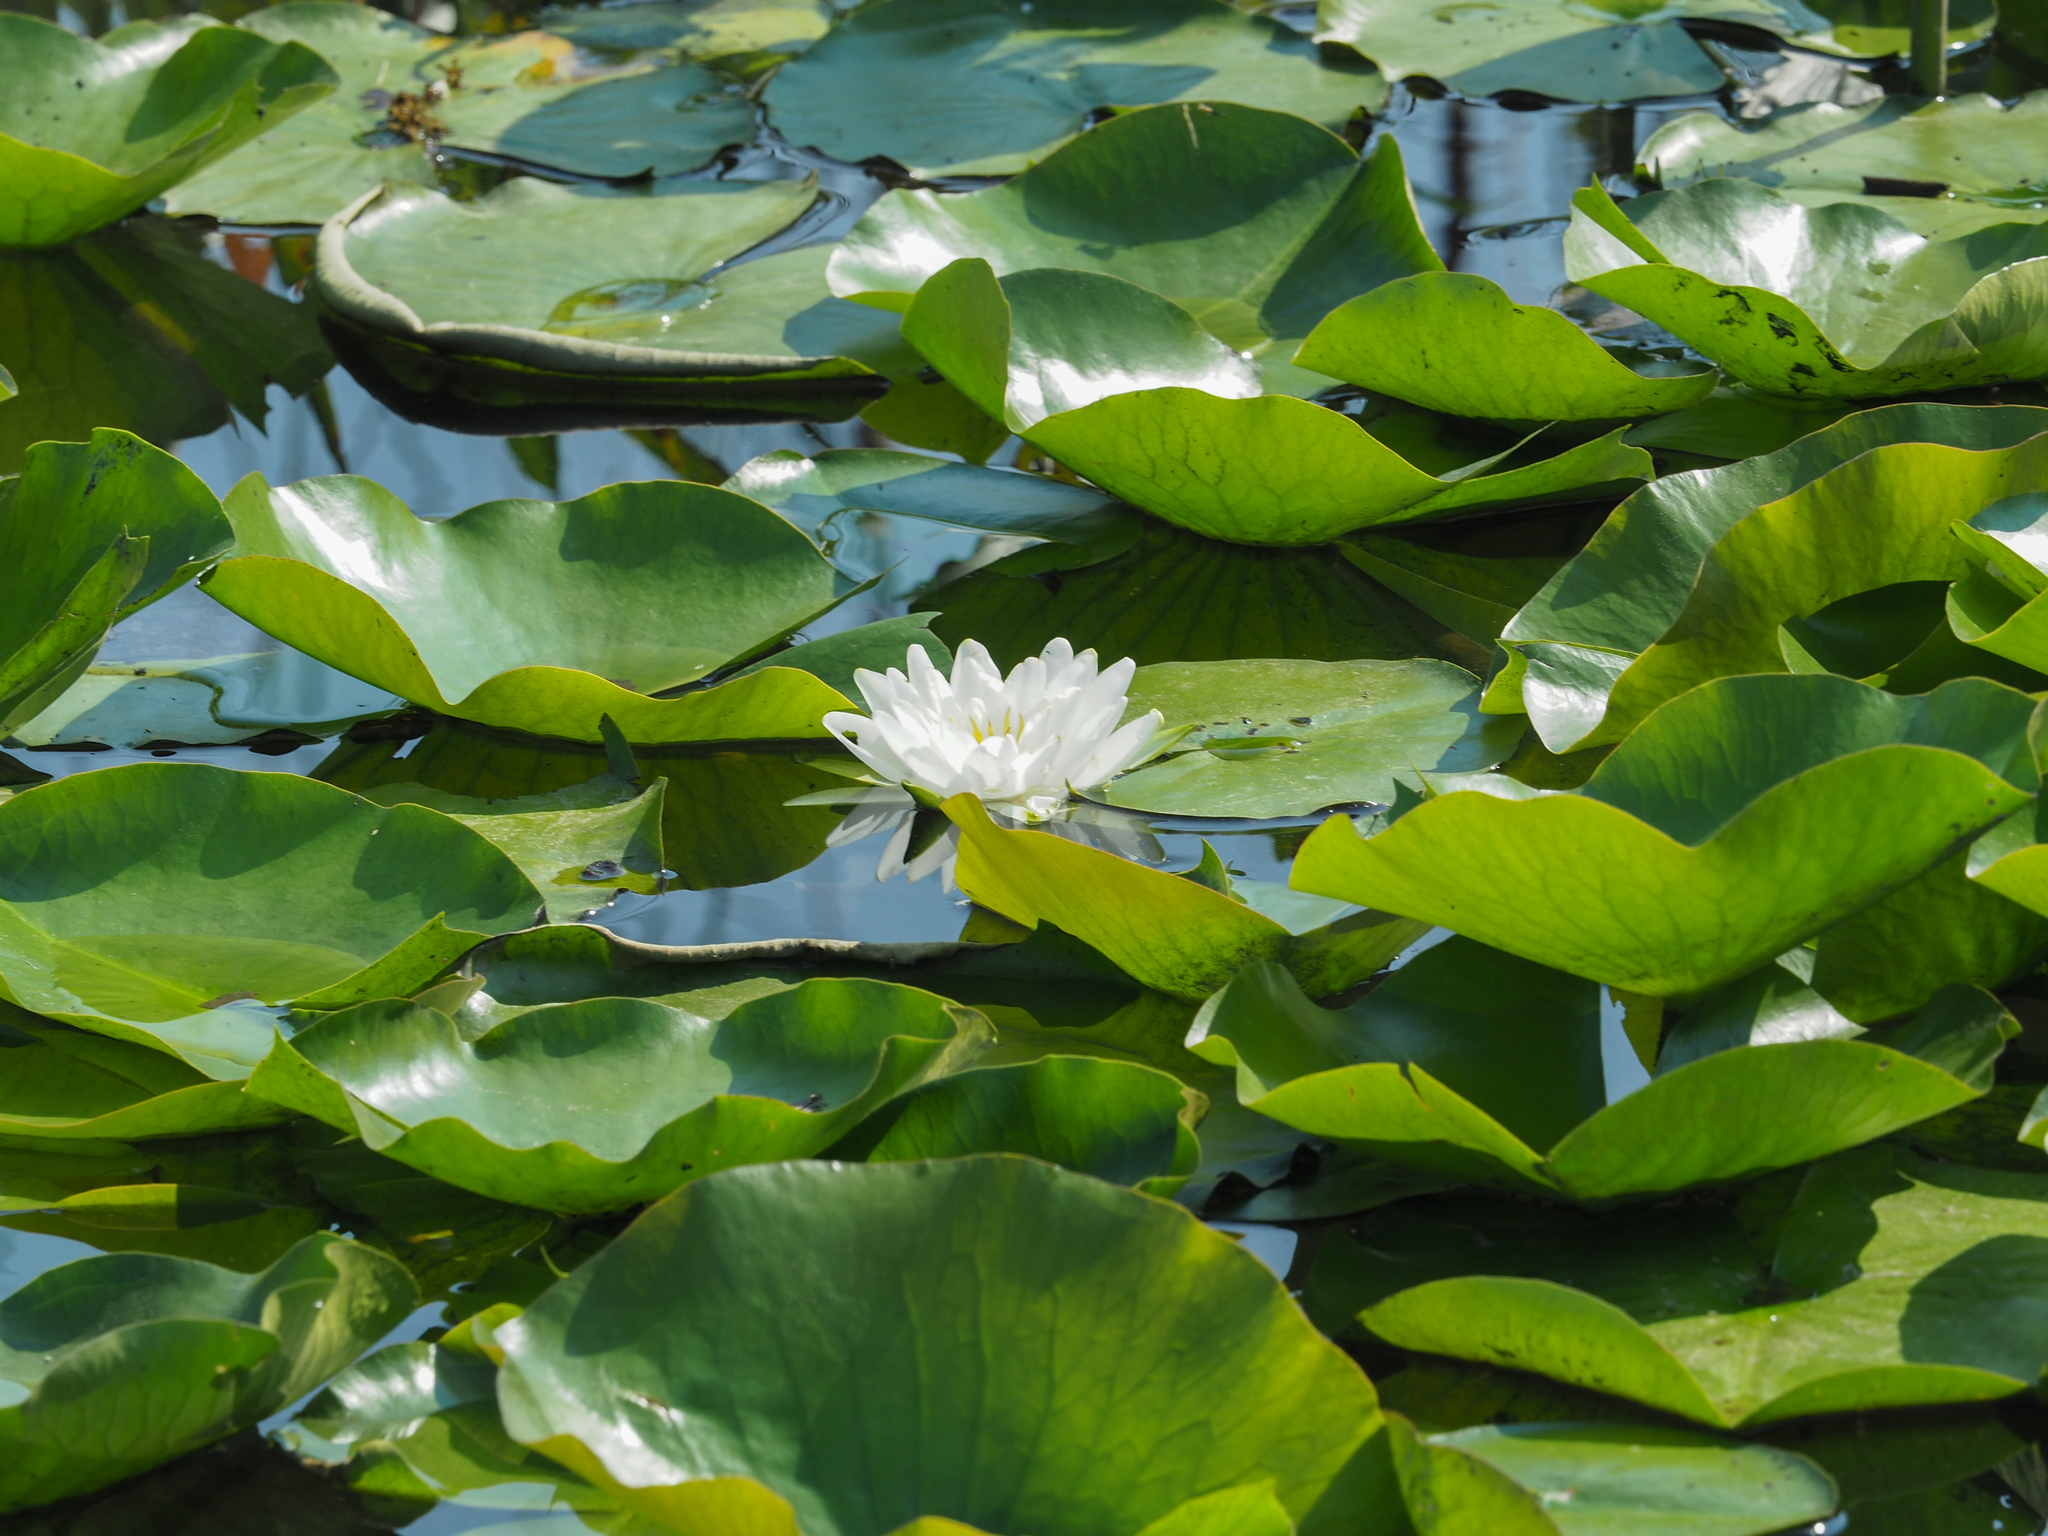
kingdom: Plantae
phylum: Tracheophyta
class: Magnoliopsida
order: Nymphaeales
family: Nymphaeaceae
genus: Nymphaea
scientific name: Nymphaea odorata
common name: Fragrant water-lily
